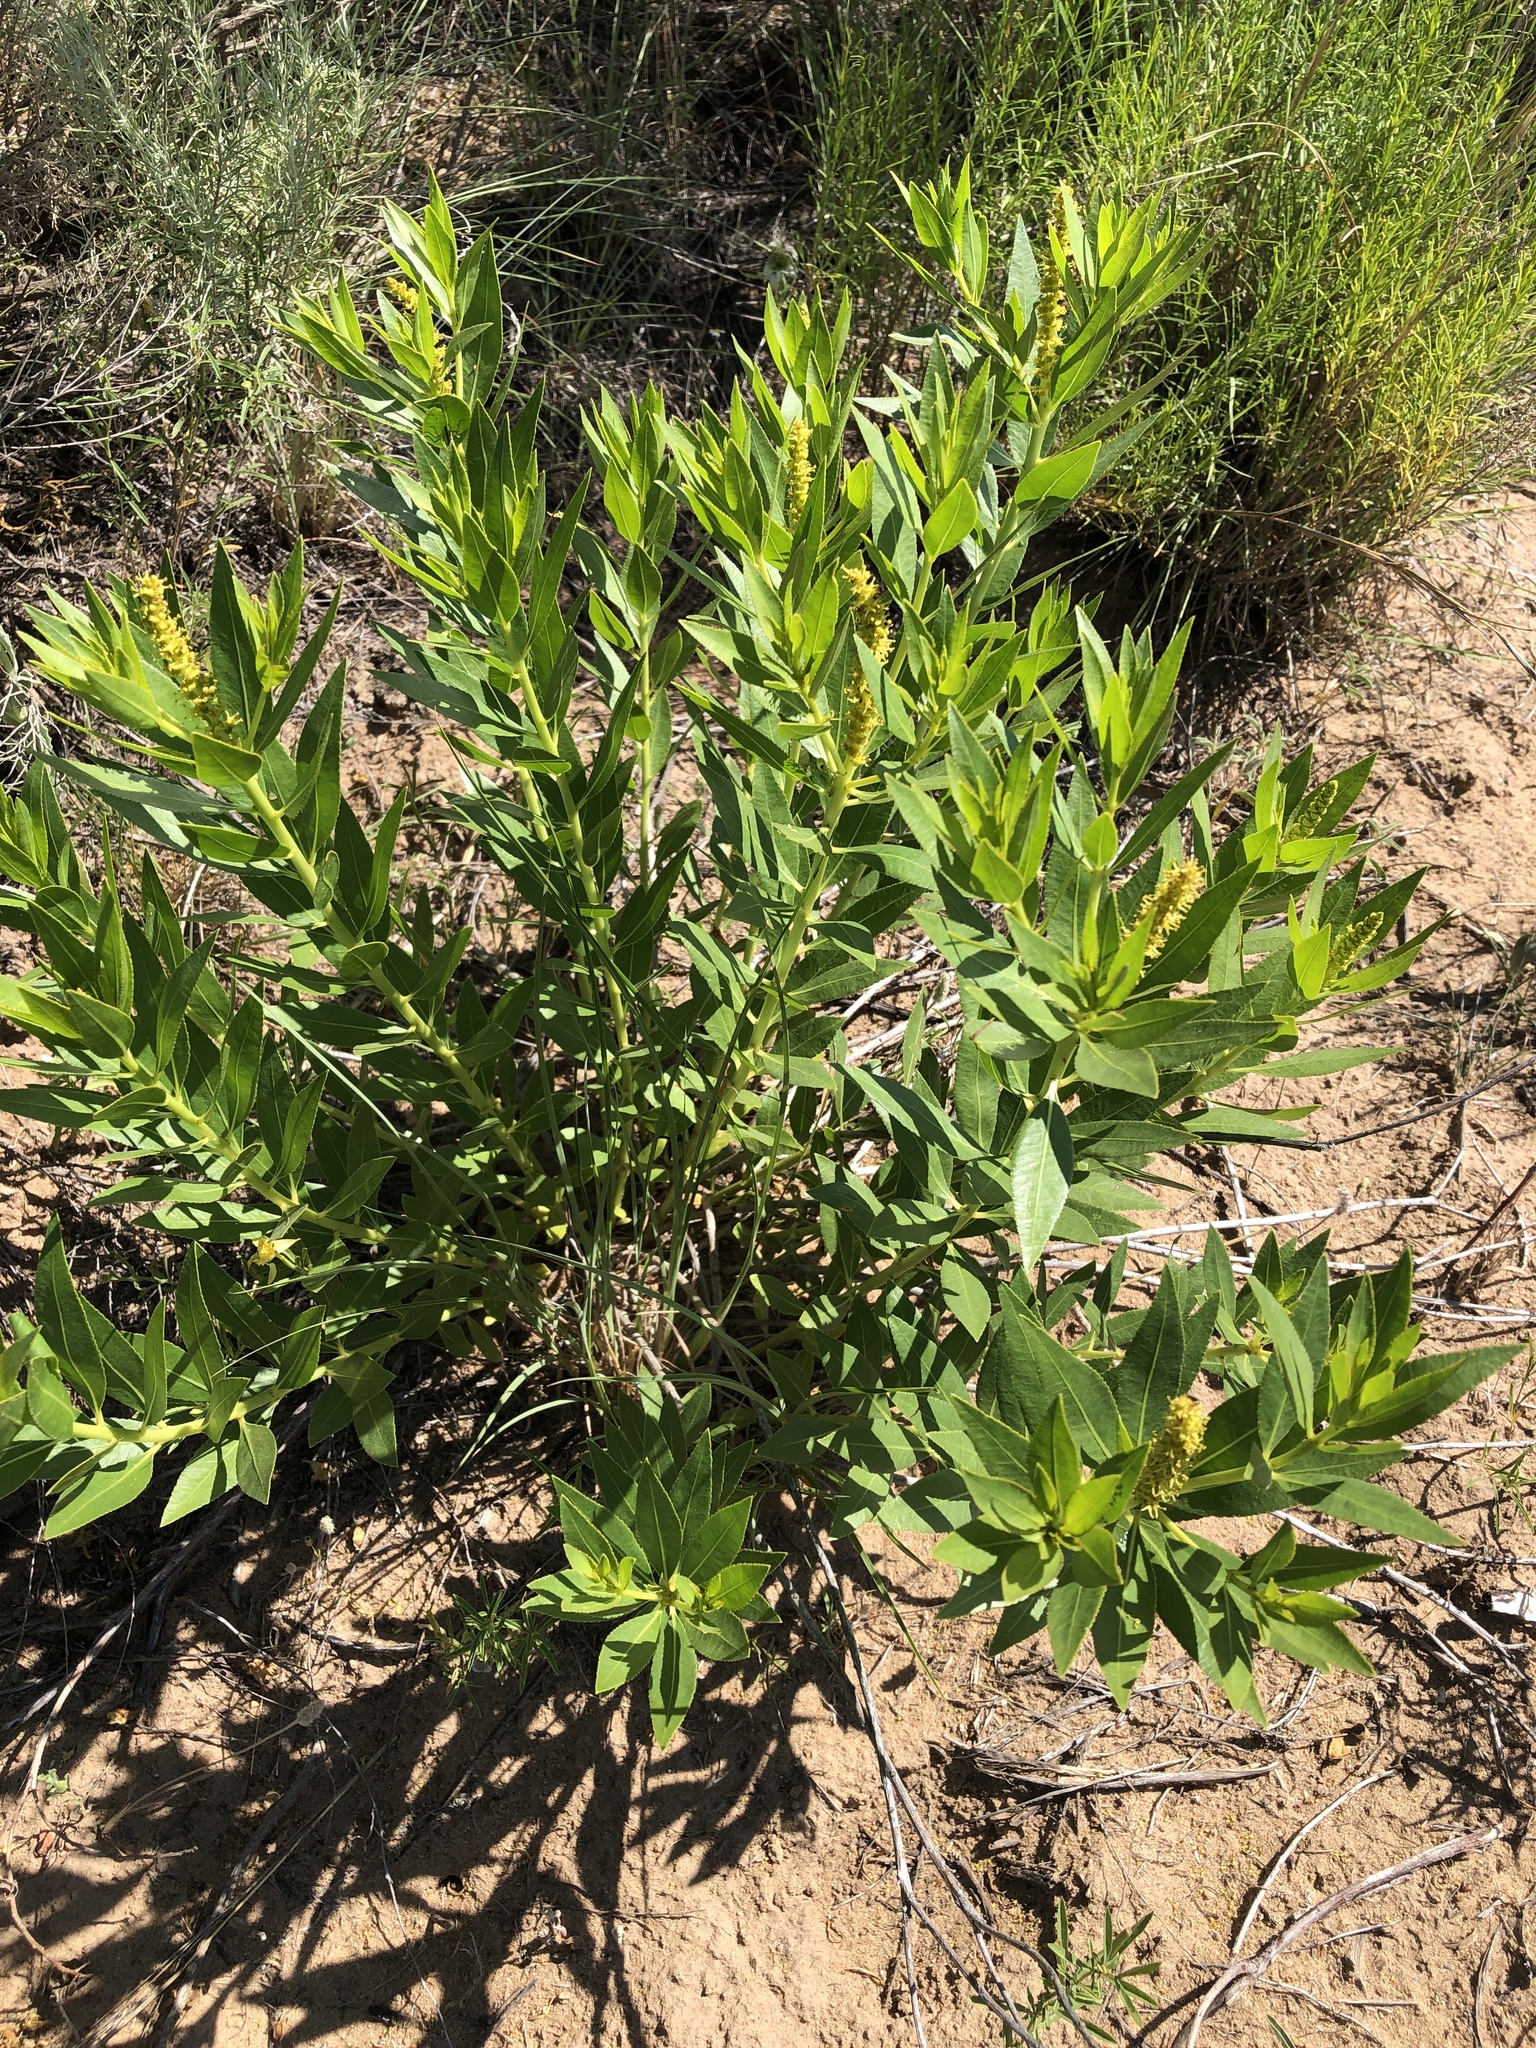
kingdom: Plantae
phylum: Tracheophyta
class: Magnoliopsida
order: Malpighiales
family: Euphorbiaceae
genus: Stillingia
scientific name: Stillingia sylvatica
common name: Queen's-delight
